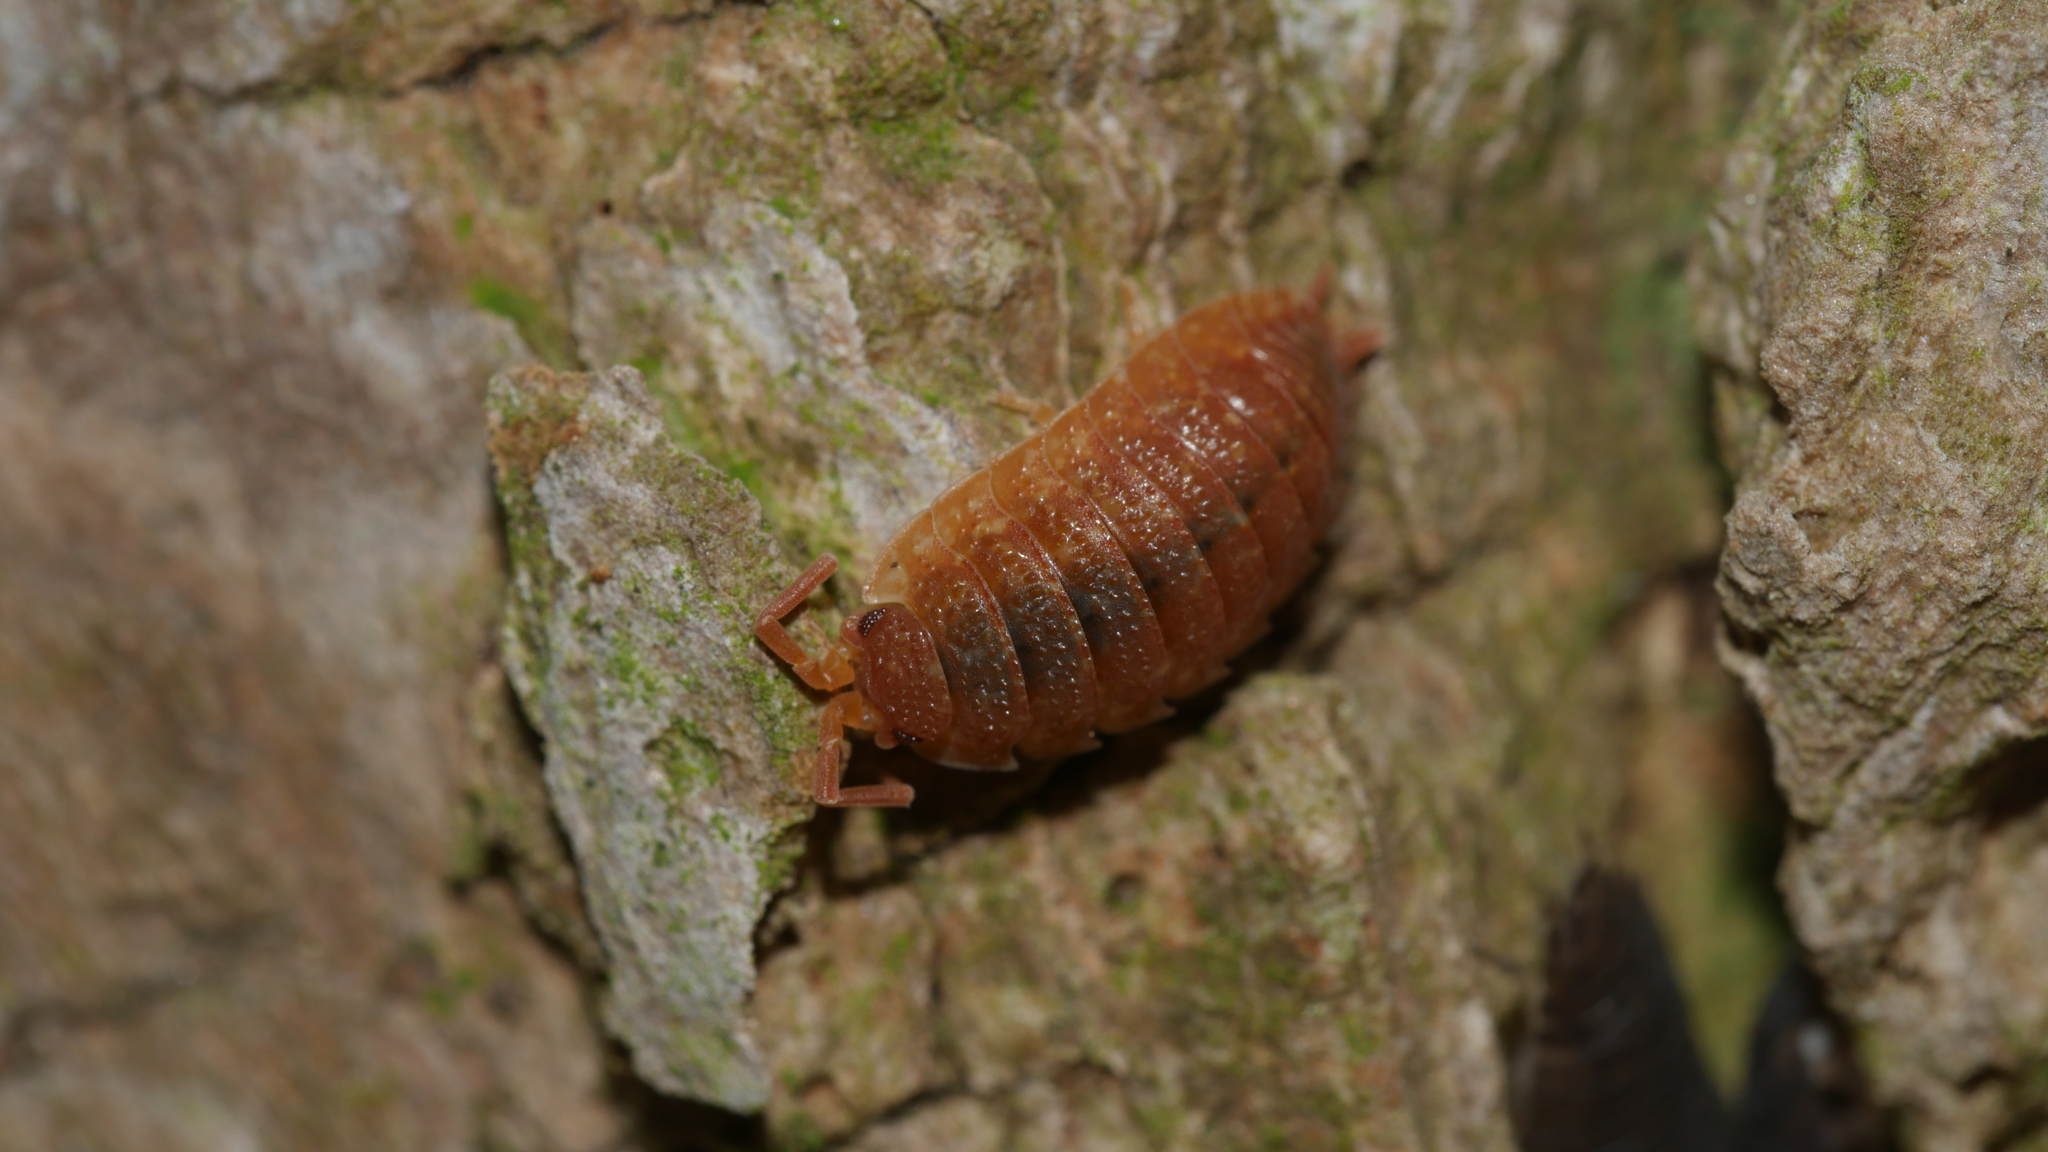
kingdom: Animalia
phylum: Arthropoda
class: Malacostraca
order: Isopoda
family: Porcellionidae
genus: Porcellio
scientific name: Porcellio scaber
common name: Common rough woodlouse
